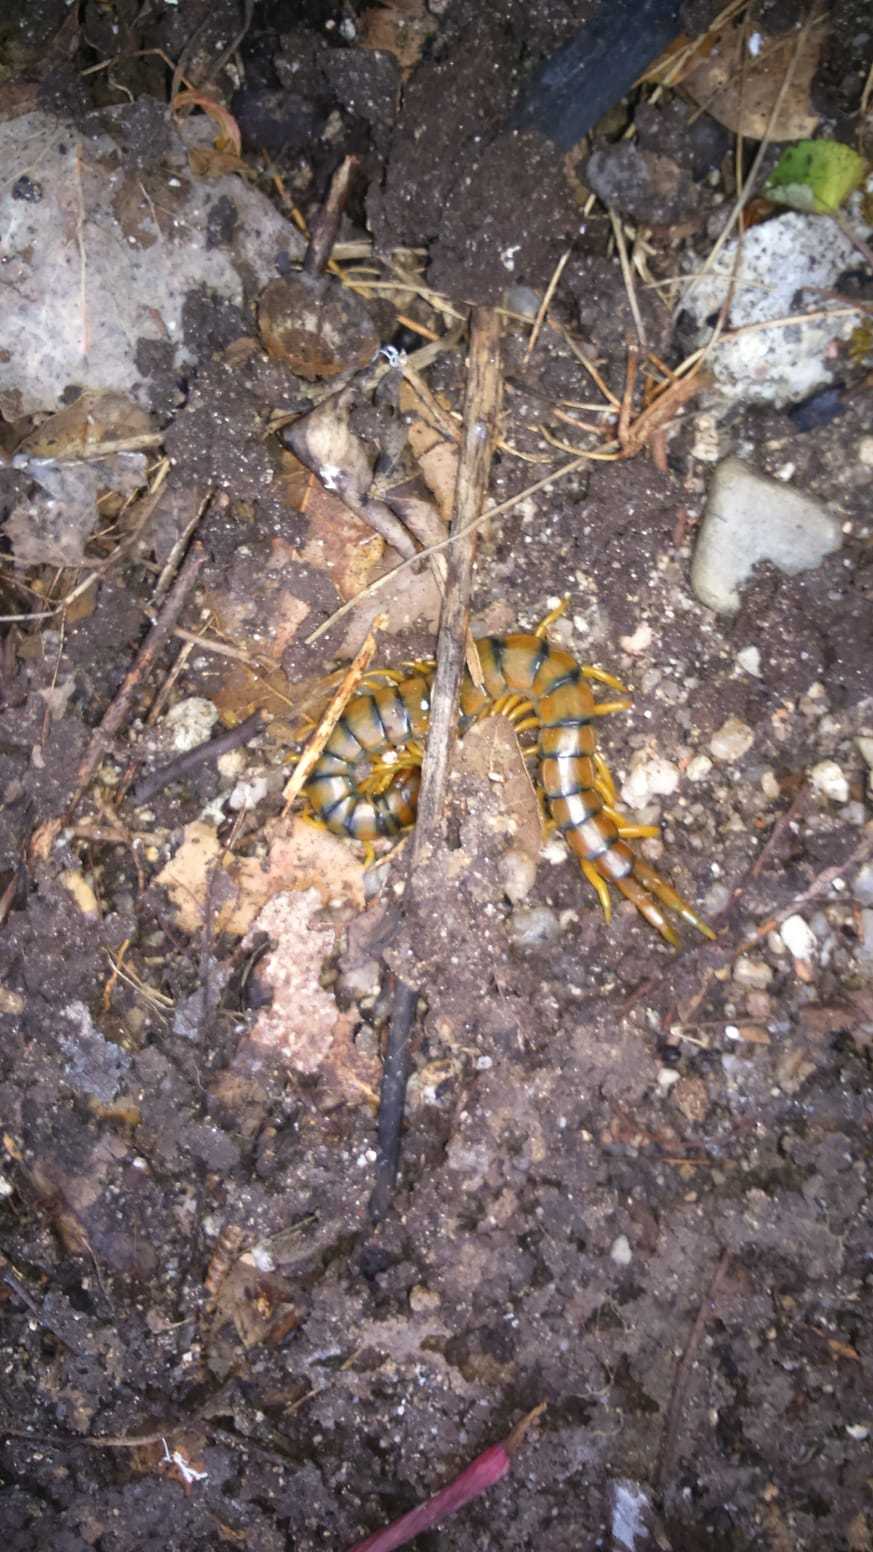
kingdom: Animalia
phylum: Arthropoda
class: Chilopoda
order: Scolopendromorpha
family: Scolopendridae
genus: Scolopendra
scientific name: Scolopendra cingulata
